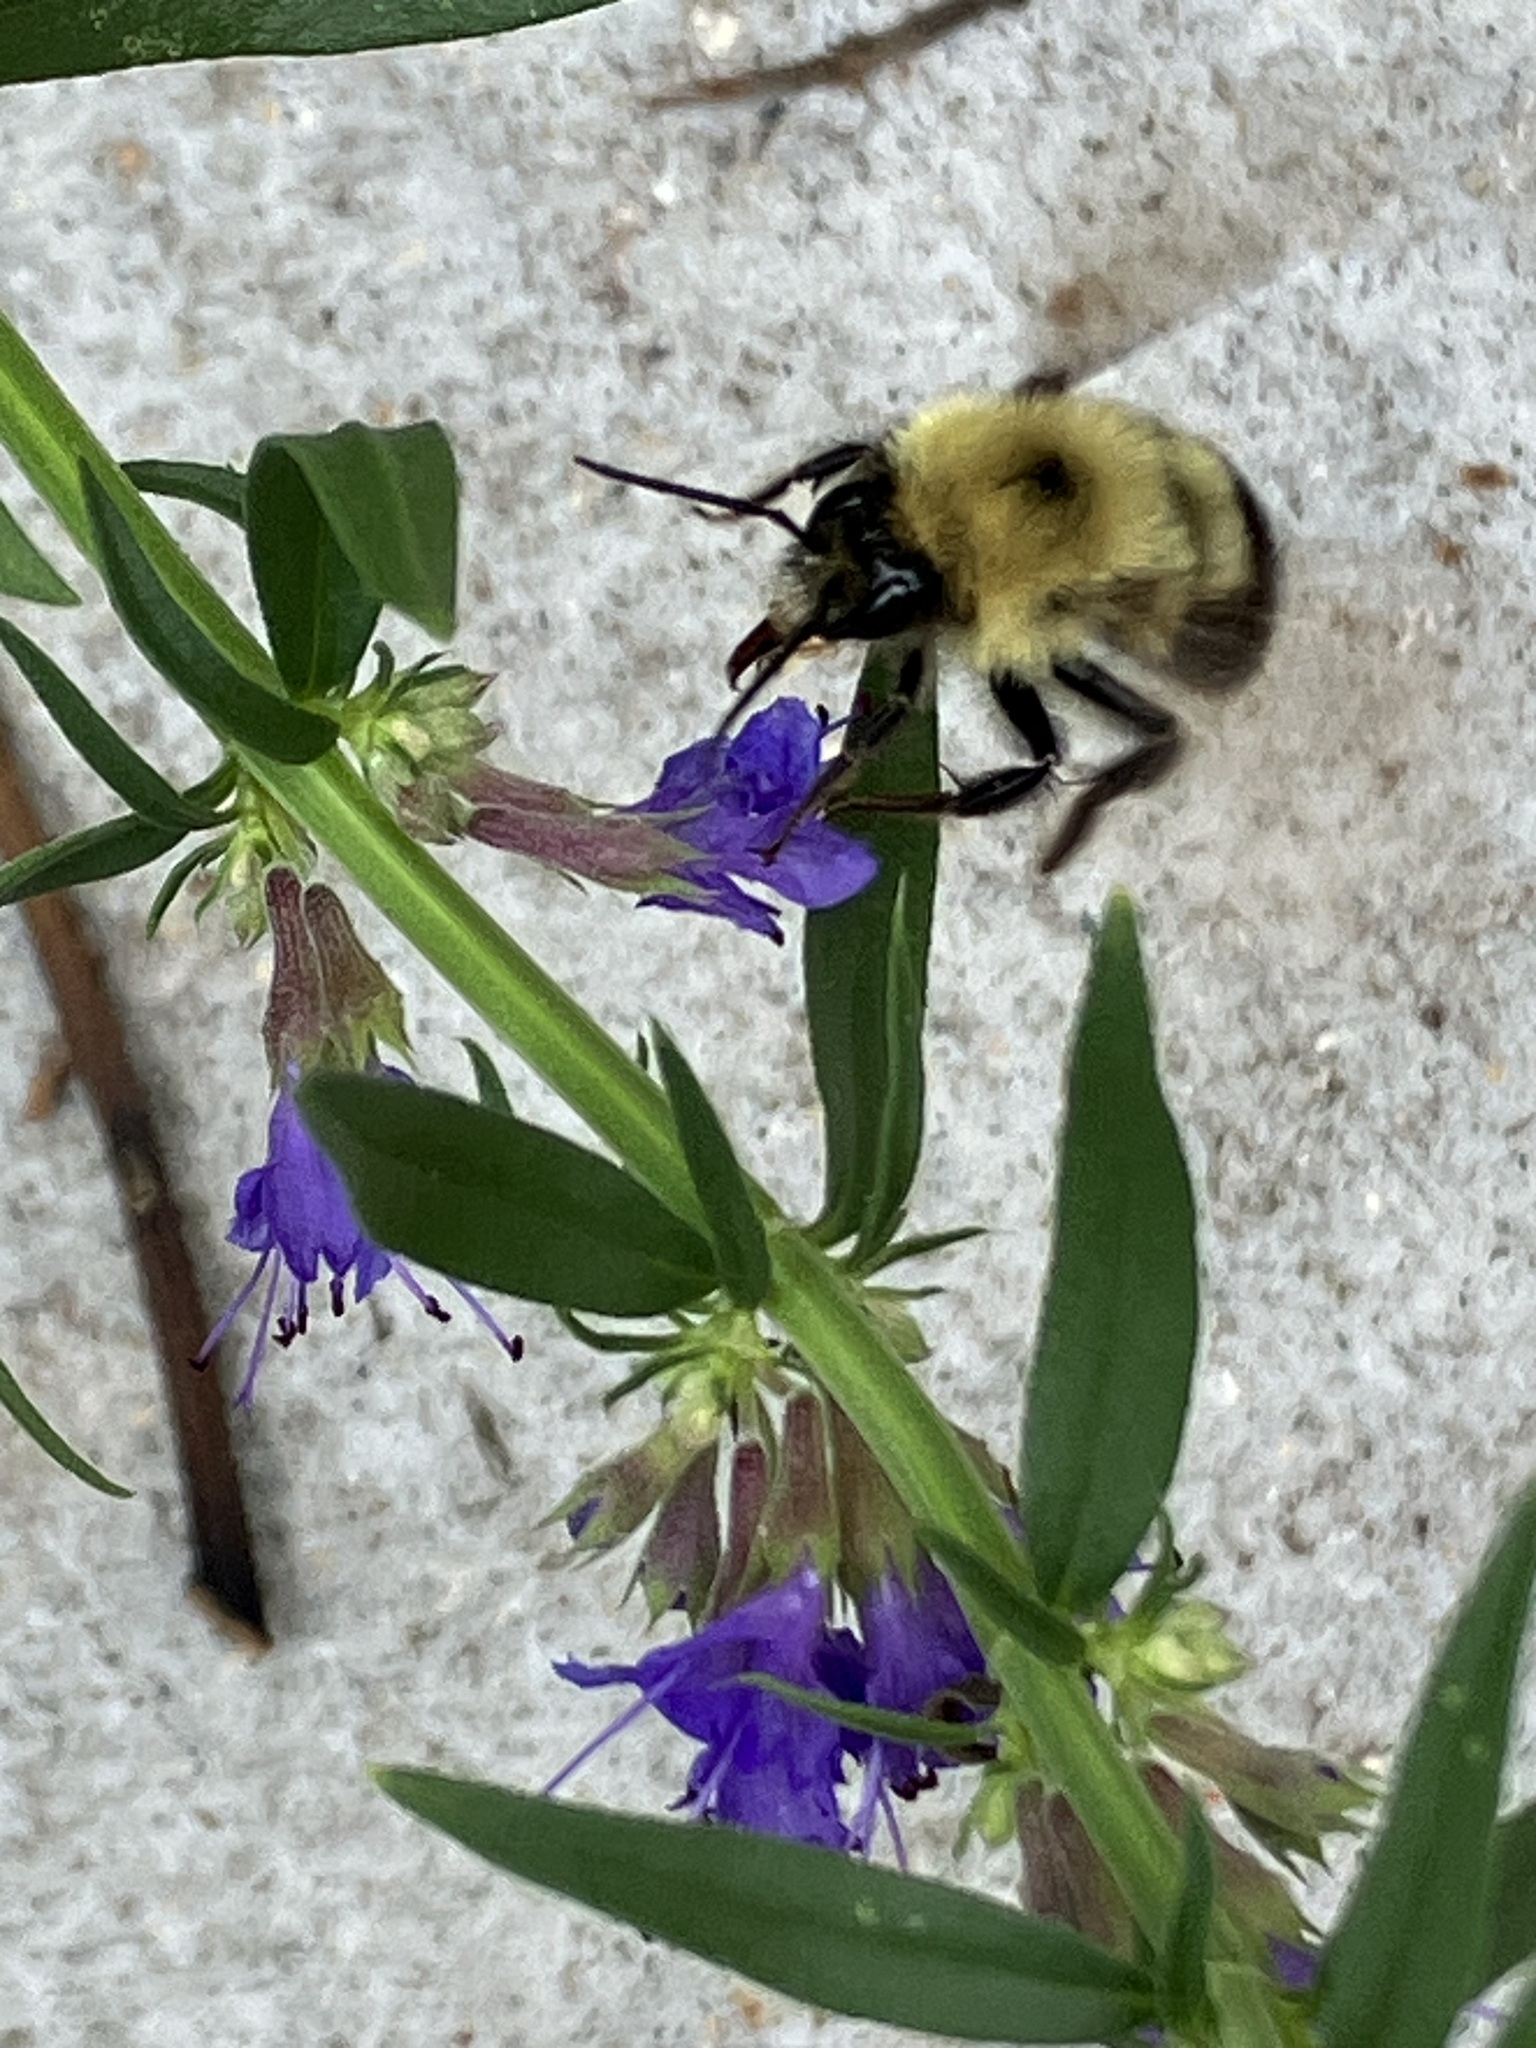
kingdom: Animalia
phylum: Arthropoda
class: Insecta
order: Hymenoptera
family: Apidae
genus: Bombus
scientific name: Bombus bimaculatus
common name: Two-spotted bumble bee
